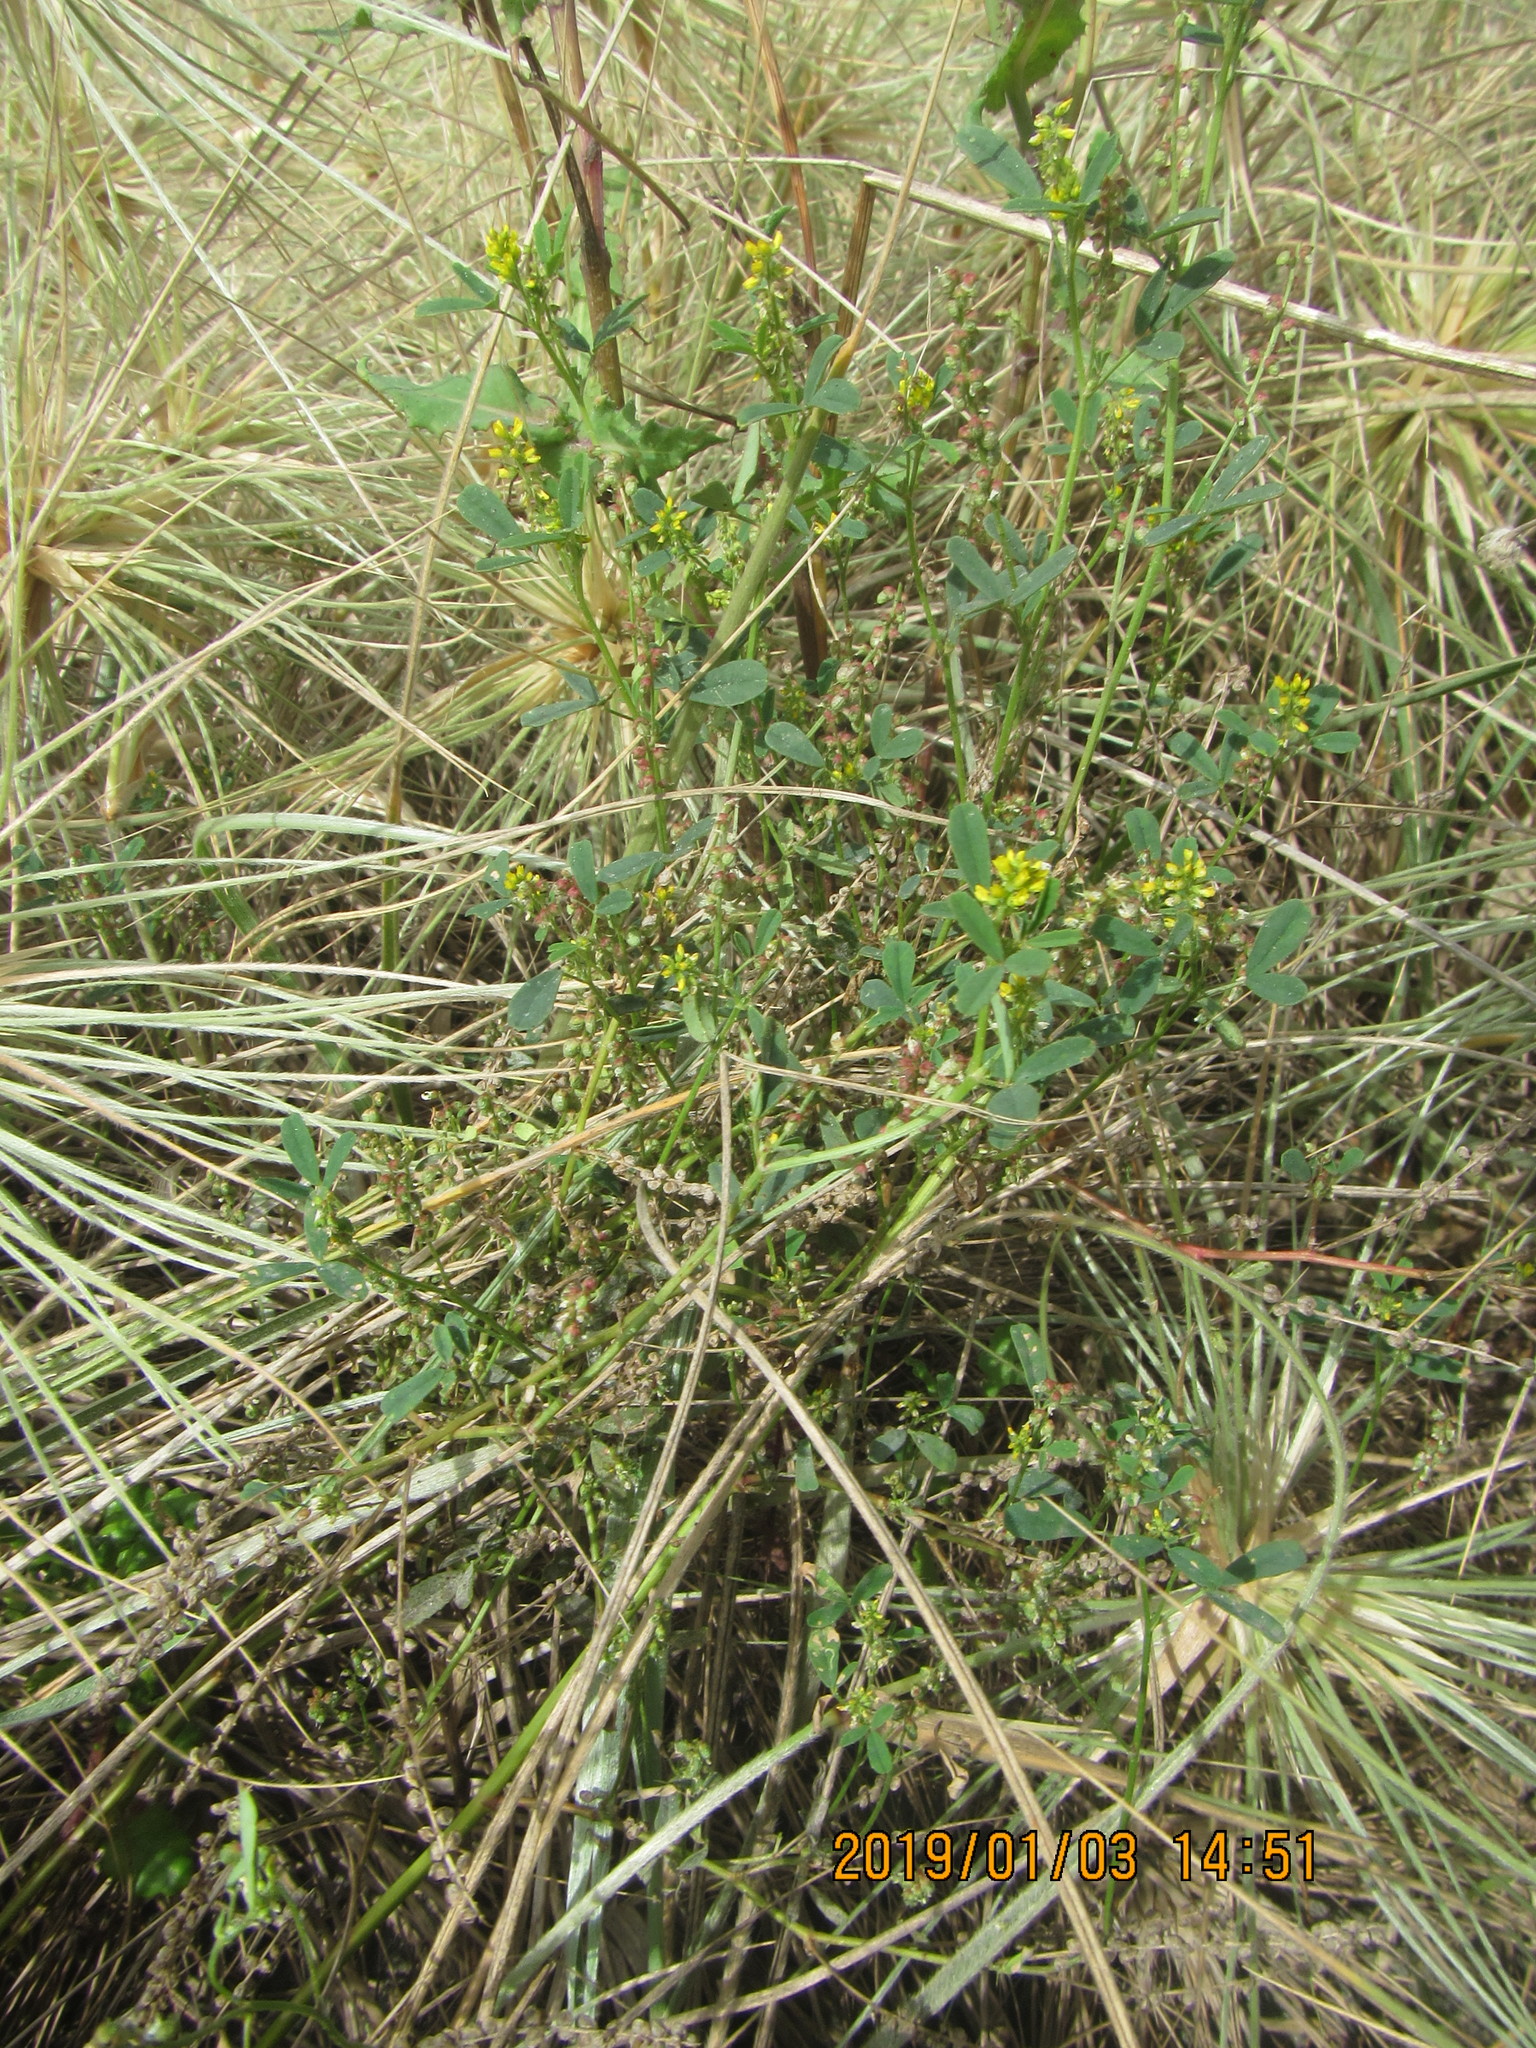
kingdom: Plantae
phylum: Tracheophyta
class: Magnoliopsida
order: Fabales
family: Fabaceae
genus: Melilotus
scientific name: Melilotus indicus
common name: Small melilot
